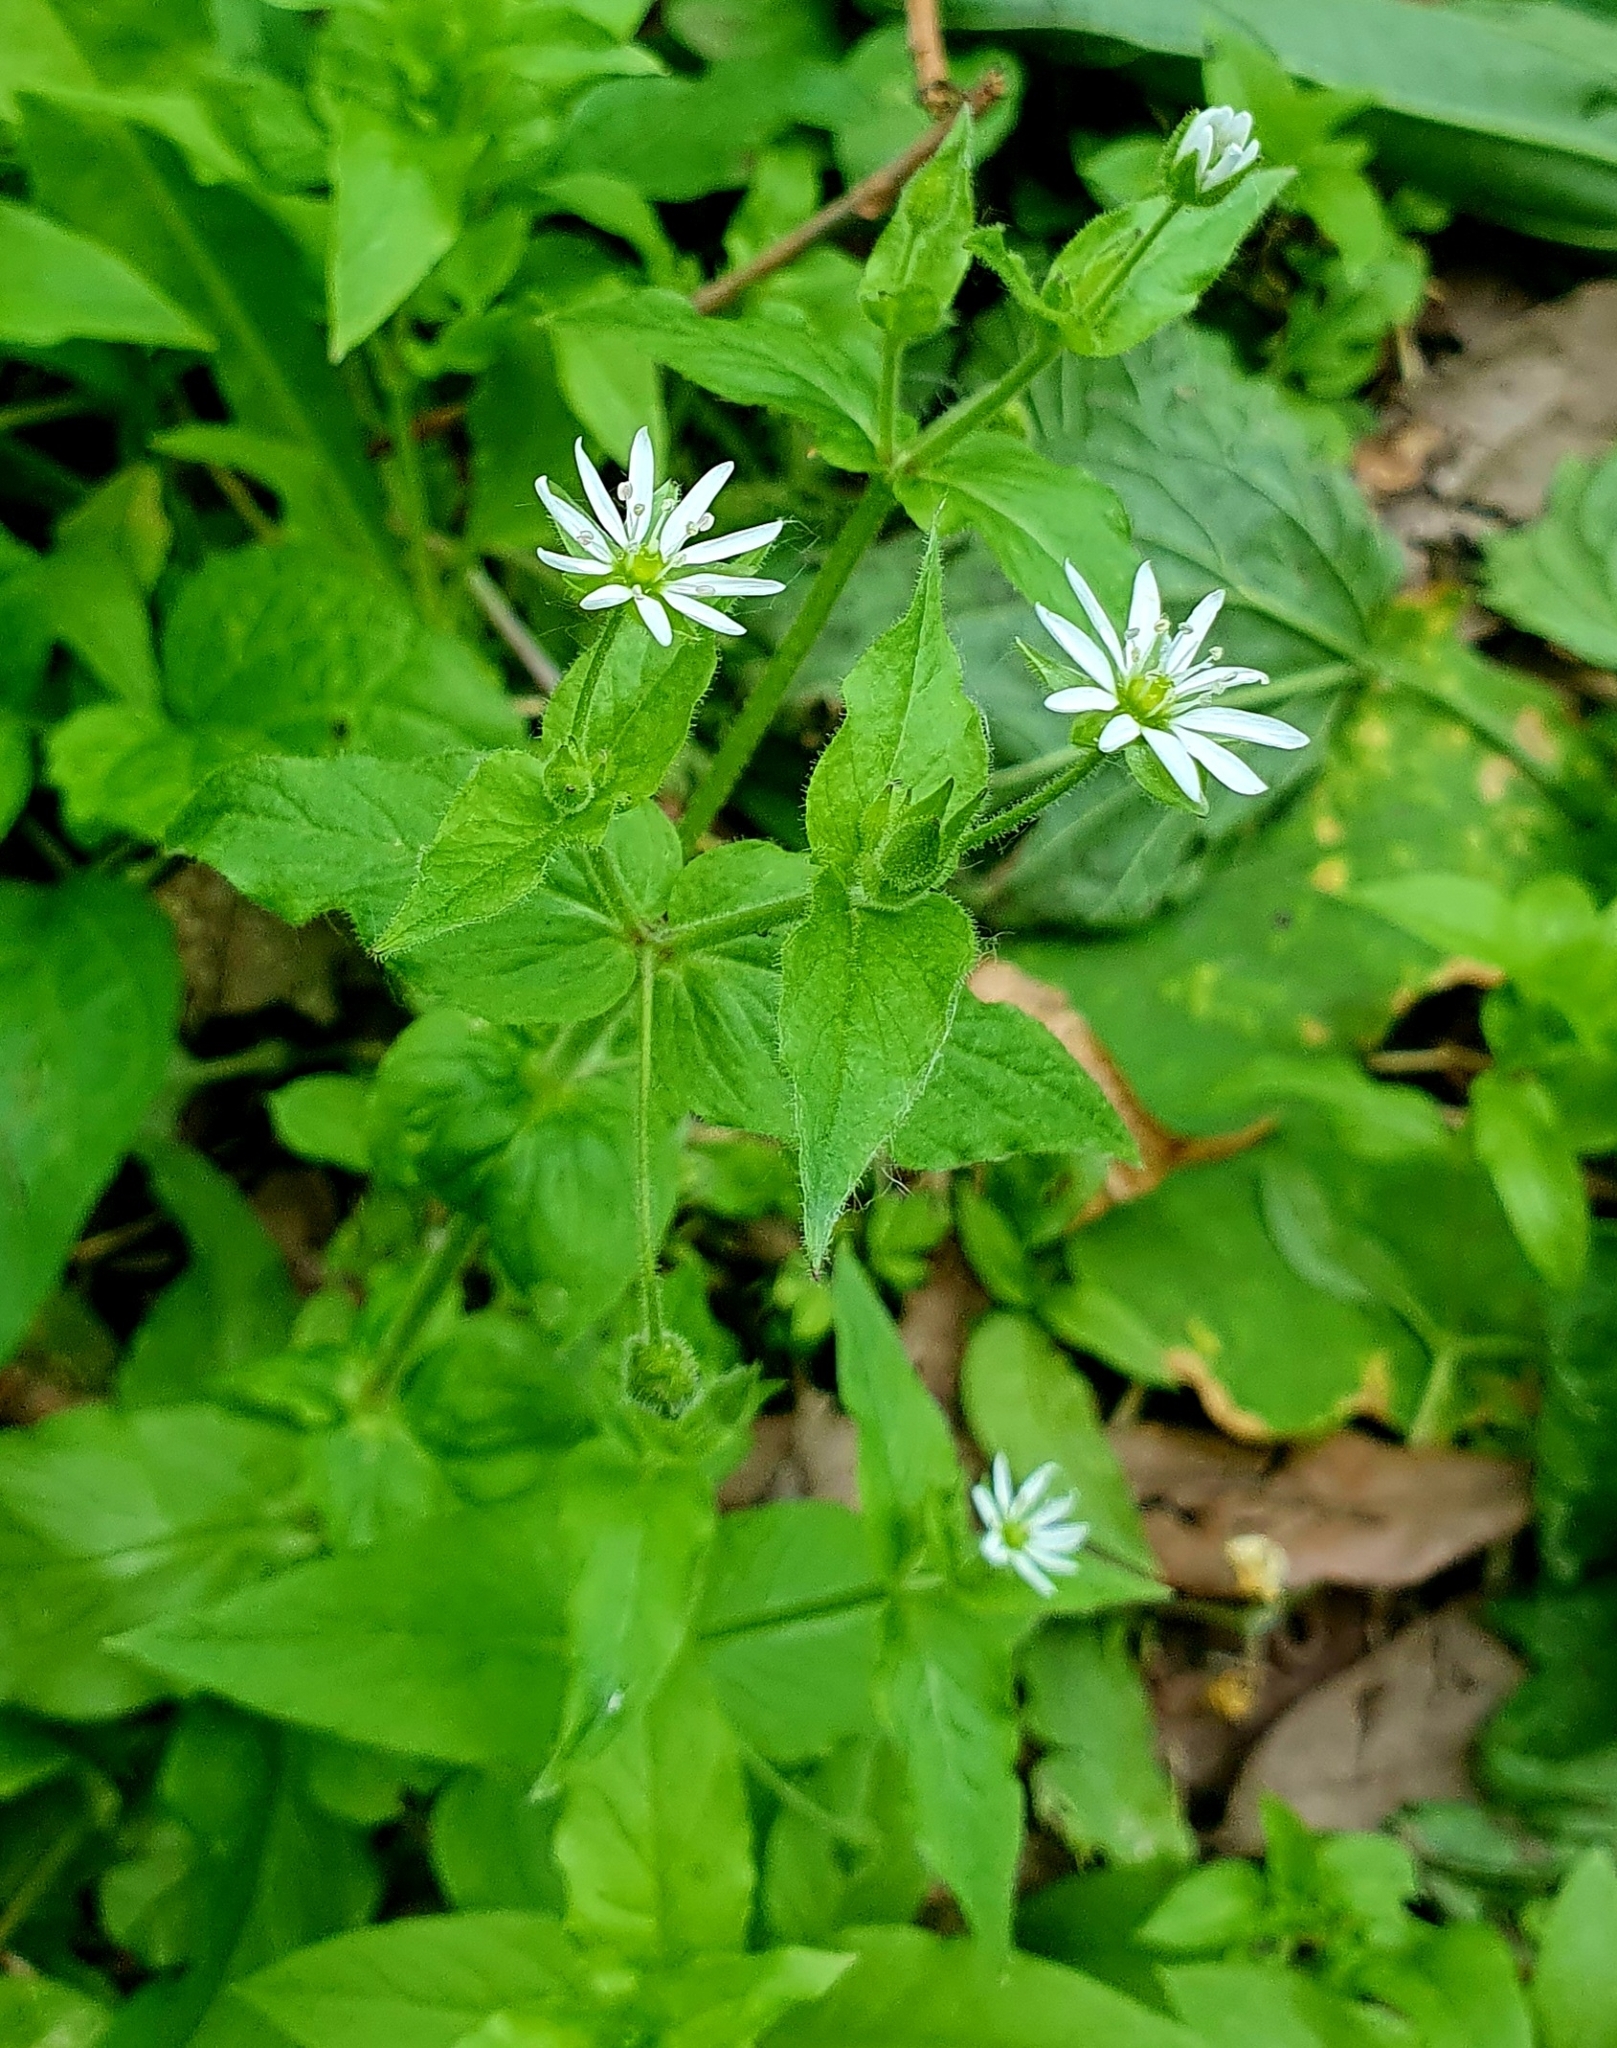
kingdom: Plantae
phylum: Tracheophyta
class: Magnoliopsida
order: Caryophyllales
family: Caryophyllaceae
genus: Stellaria
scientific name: Stellaria aquatica
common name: Water chickweed
